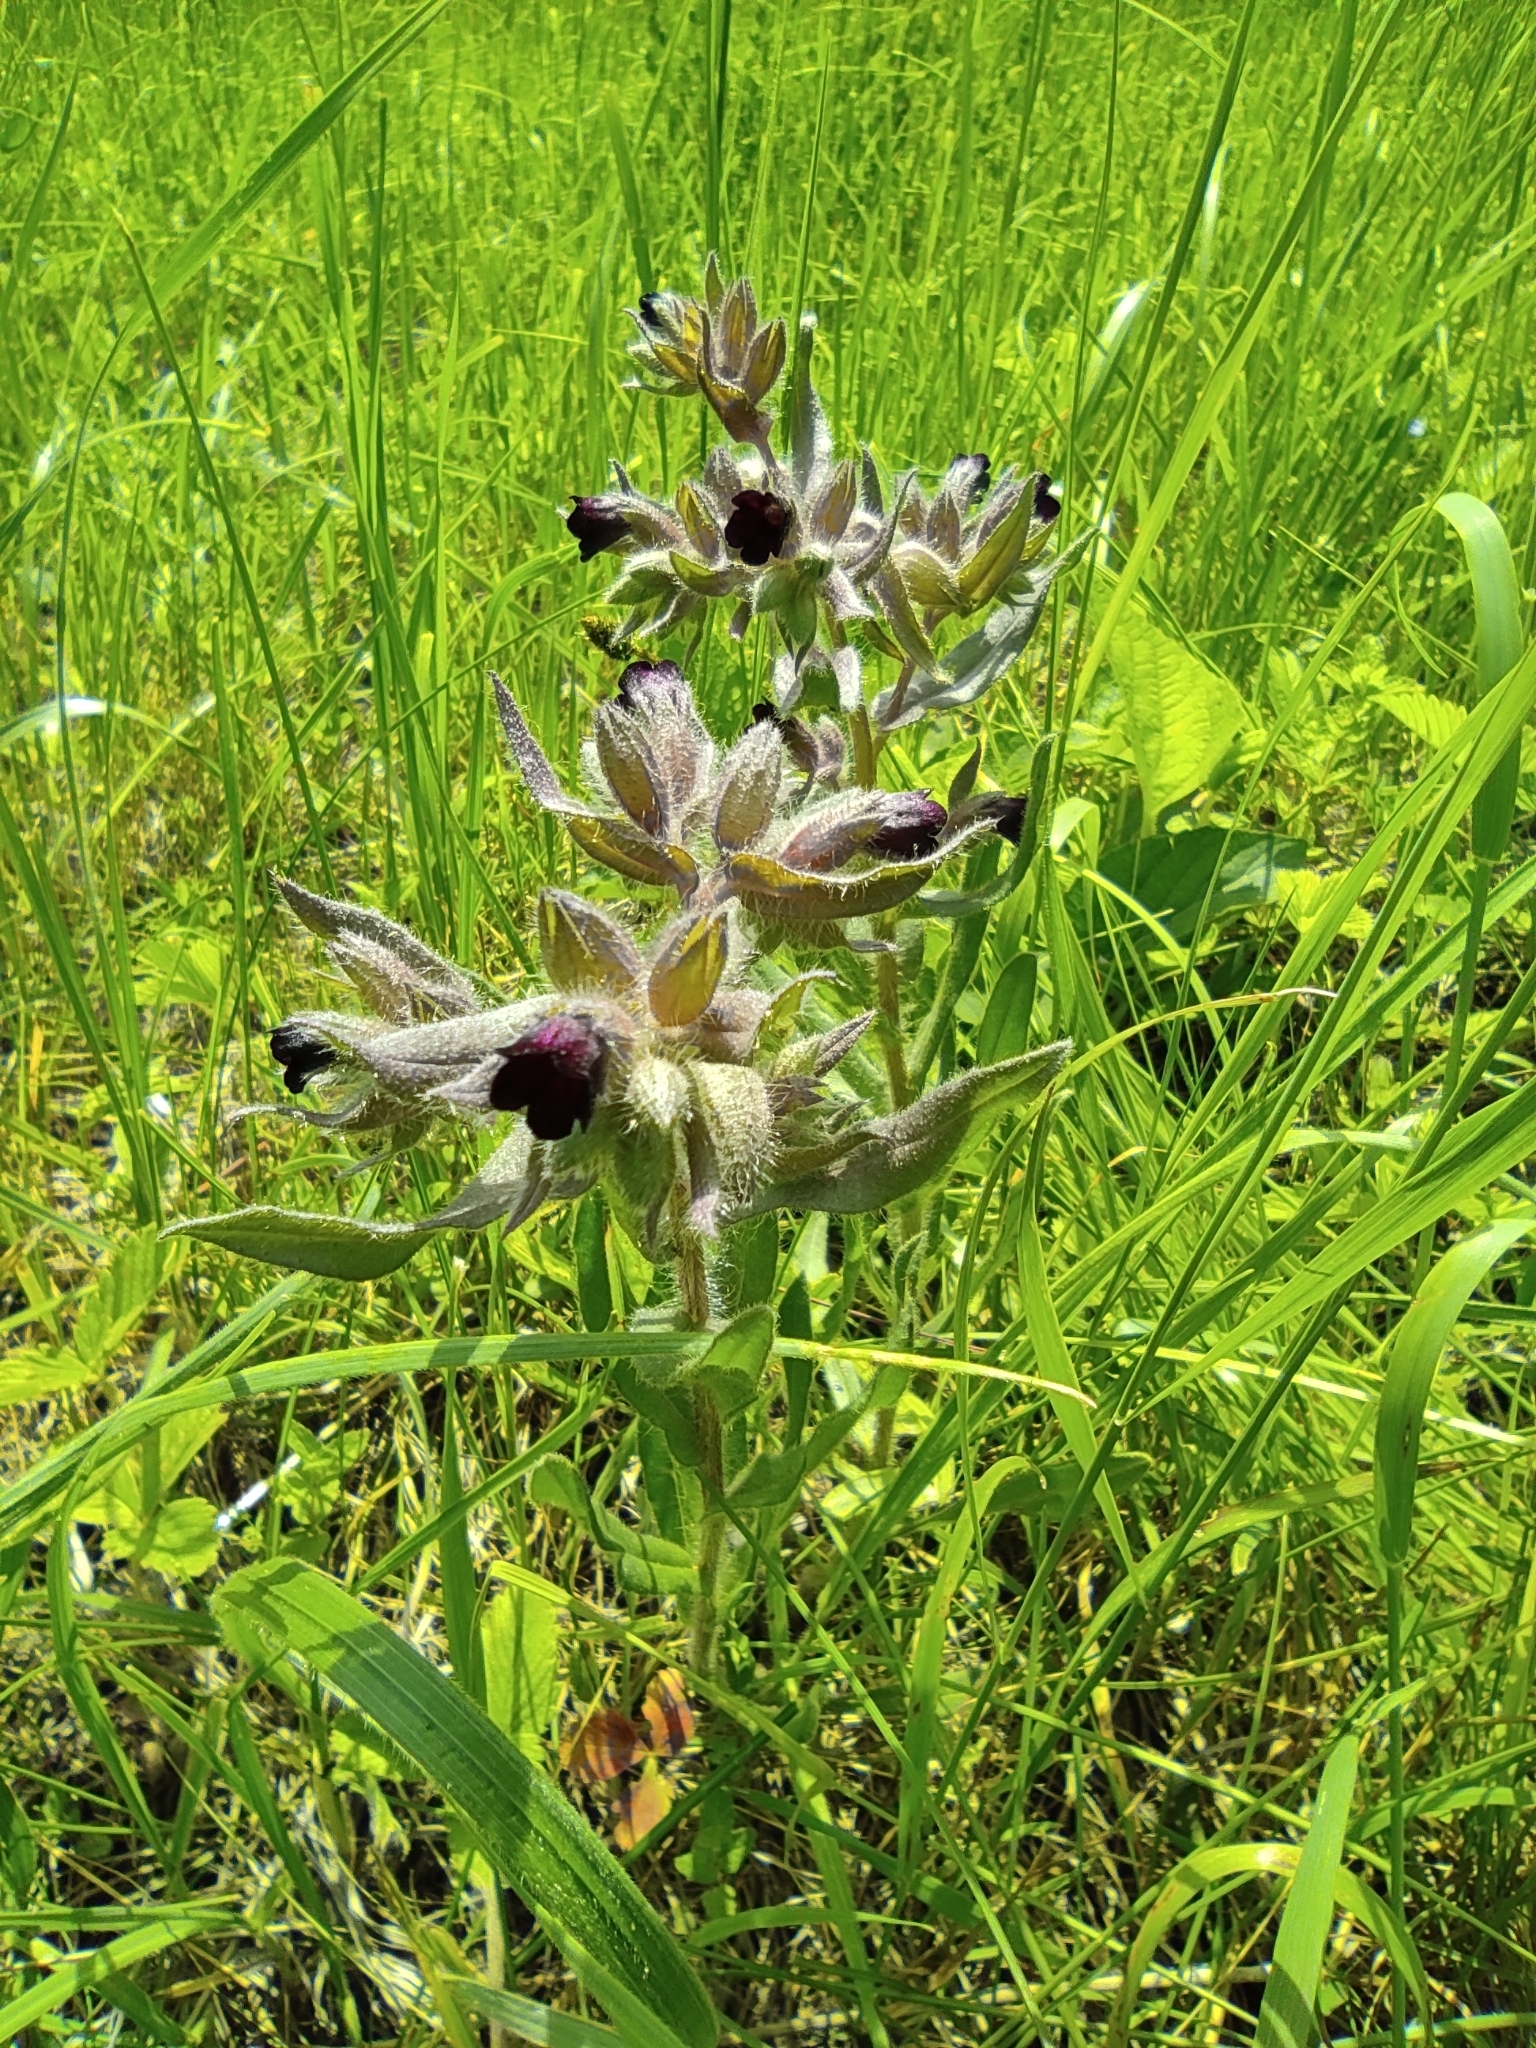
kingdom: Plantae
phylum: Tracheophyta
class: Magnoliopsida
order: Boraginales
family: Boraginaceae
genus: Nonea
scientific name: Nonea pulla
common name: Brown nonea
